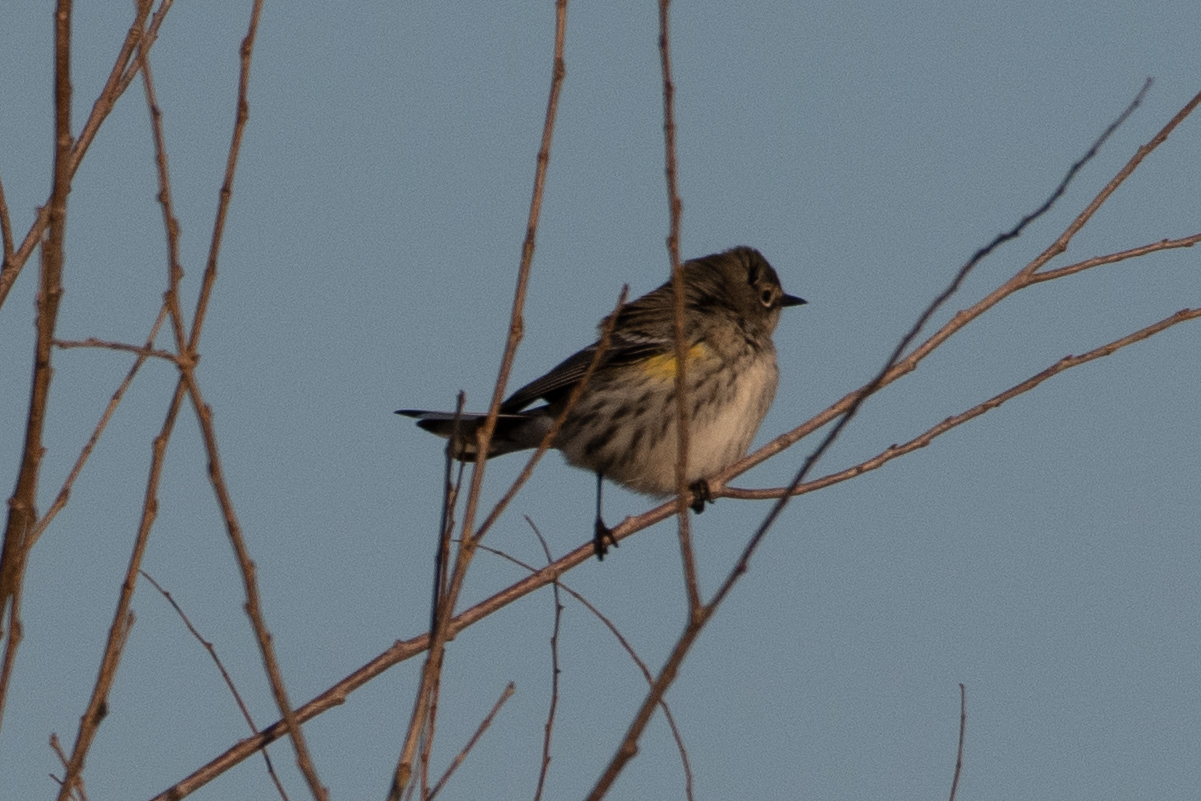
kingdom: Animalia
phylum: Chordata
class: Aves
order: Passeriformes
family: Parulidae
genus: Setophaga
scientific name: Setophaga coronata
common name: Myrtle warbler
